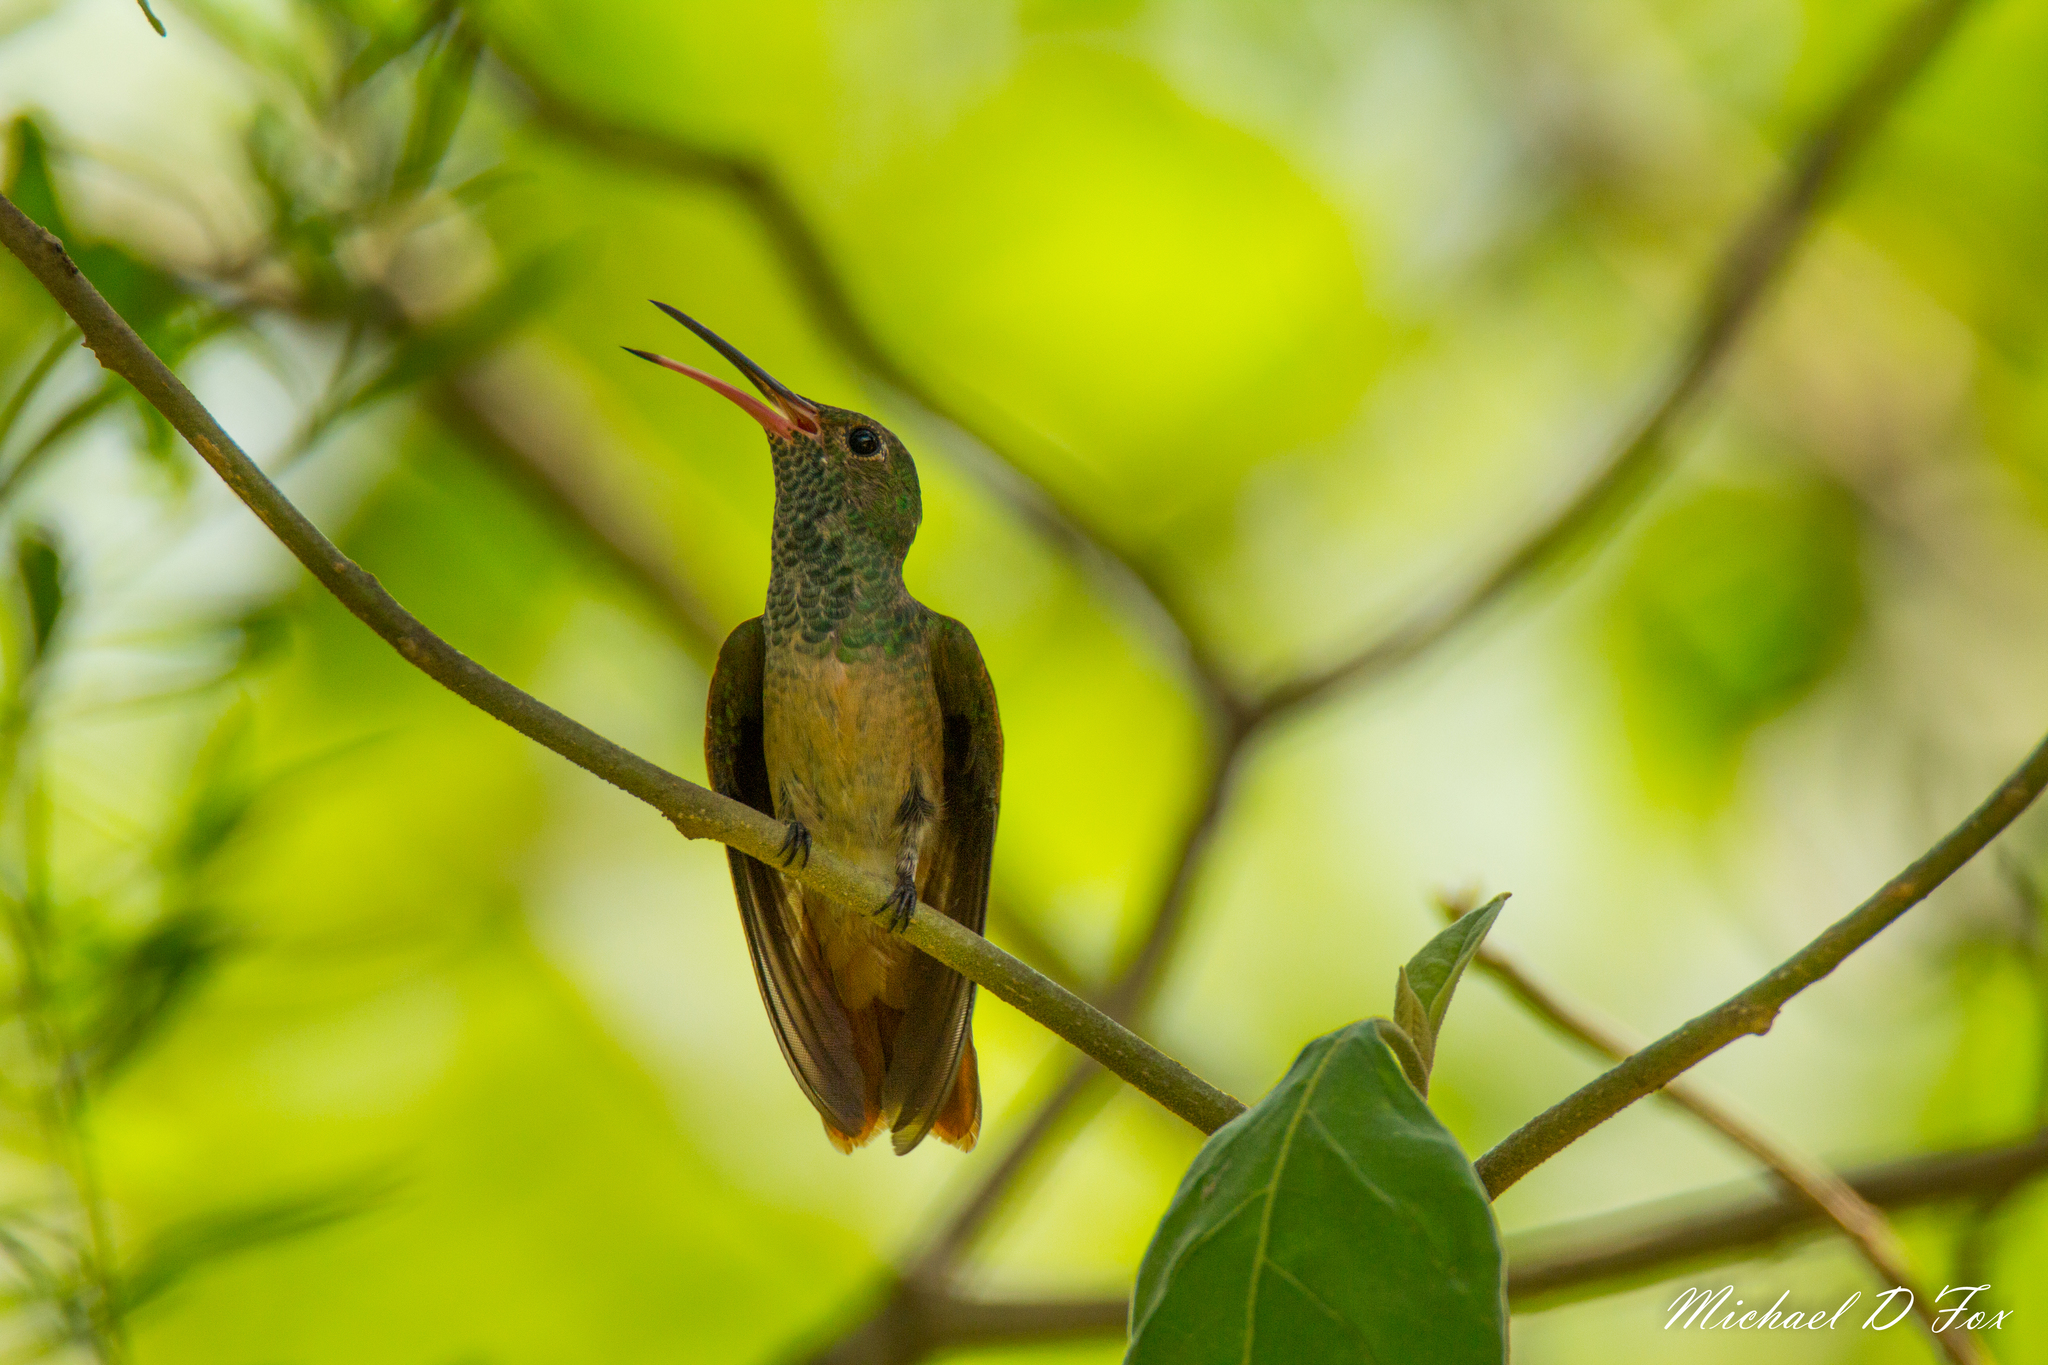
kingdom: Animalia
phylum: Chordata
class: Aves
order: Apodiformes
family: Trochilidae
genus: Amazilia
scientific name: Amazilia yucatanensis
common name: Buff-bellied hummingbird
